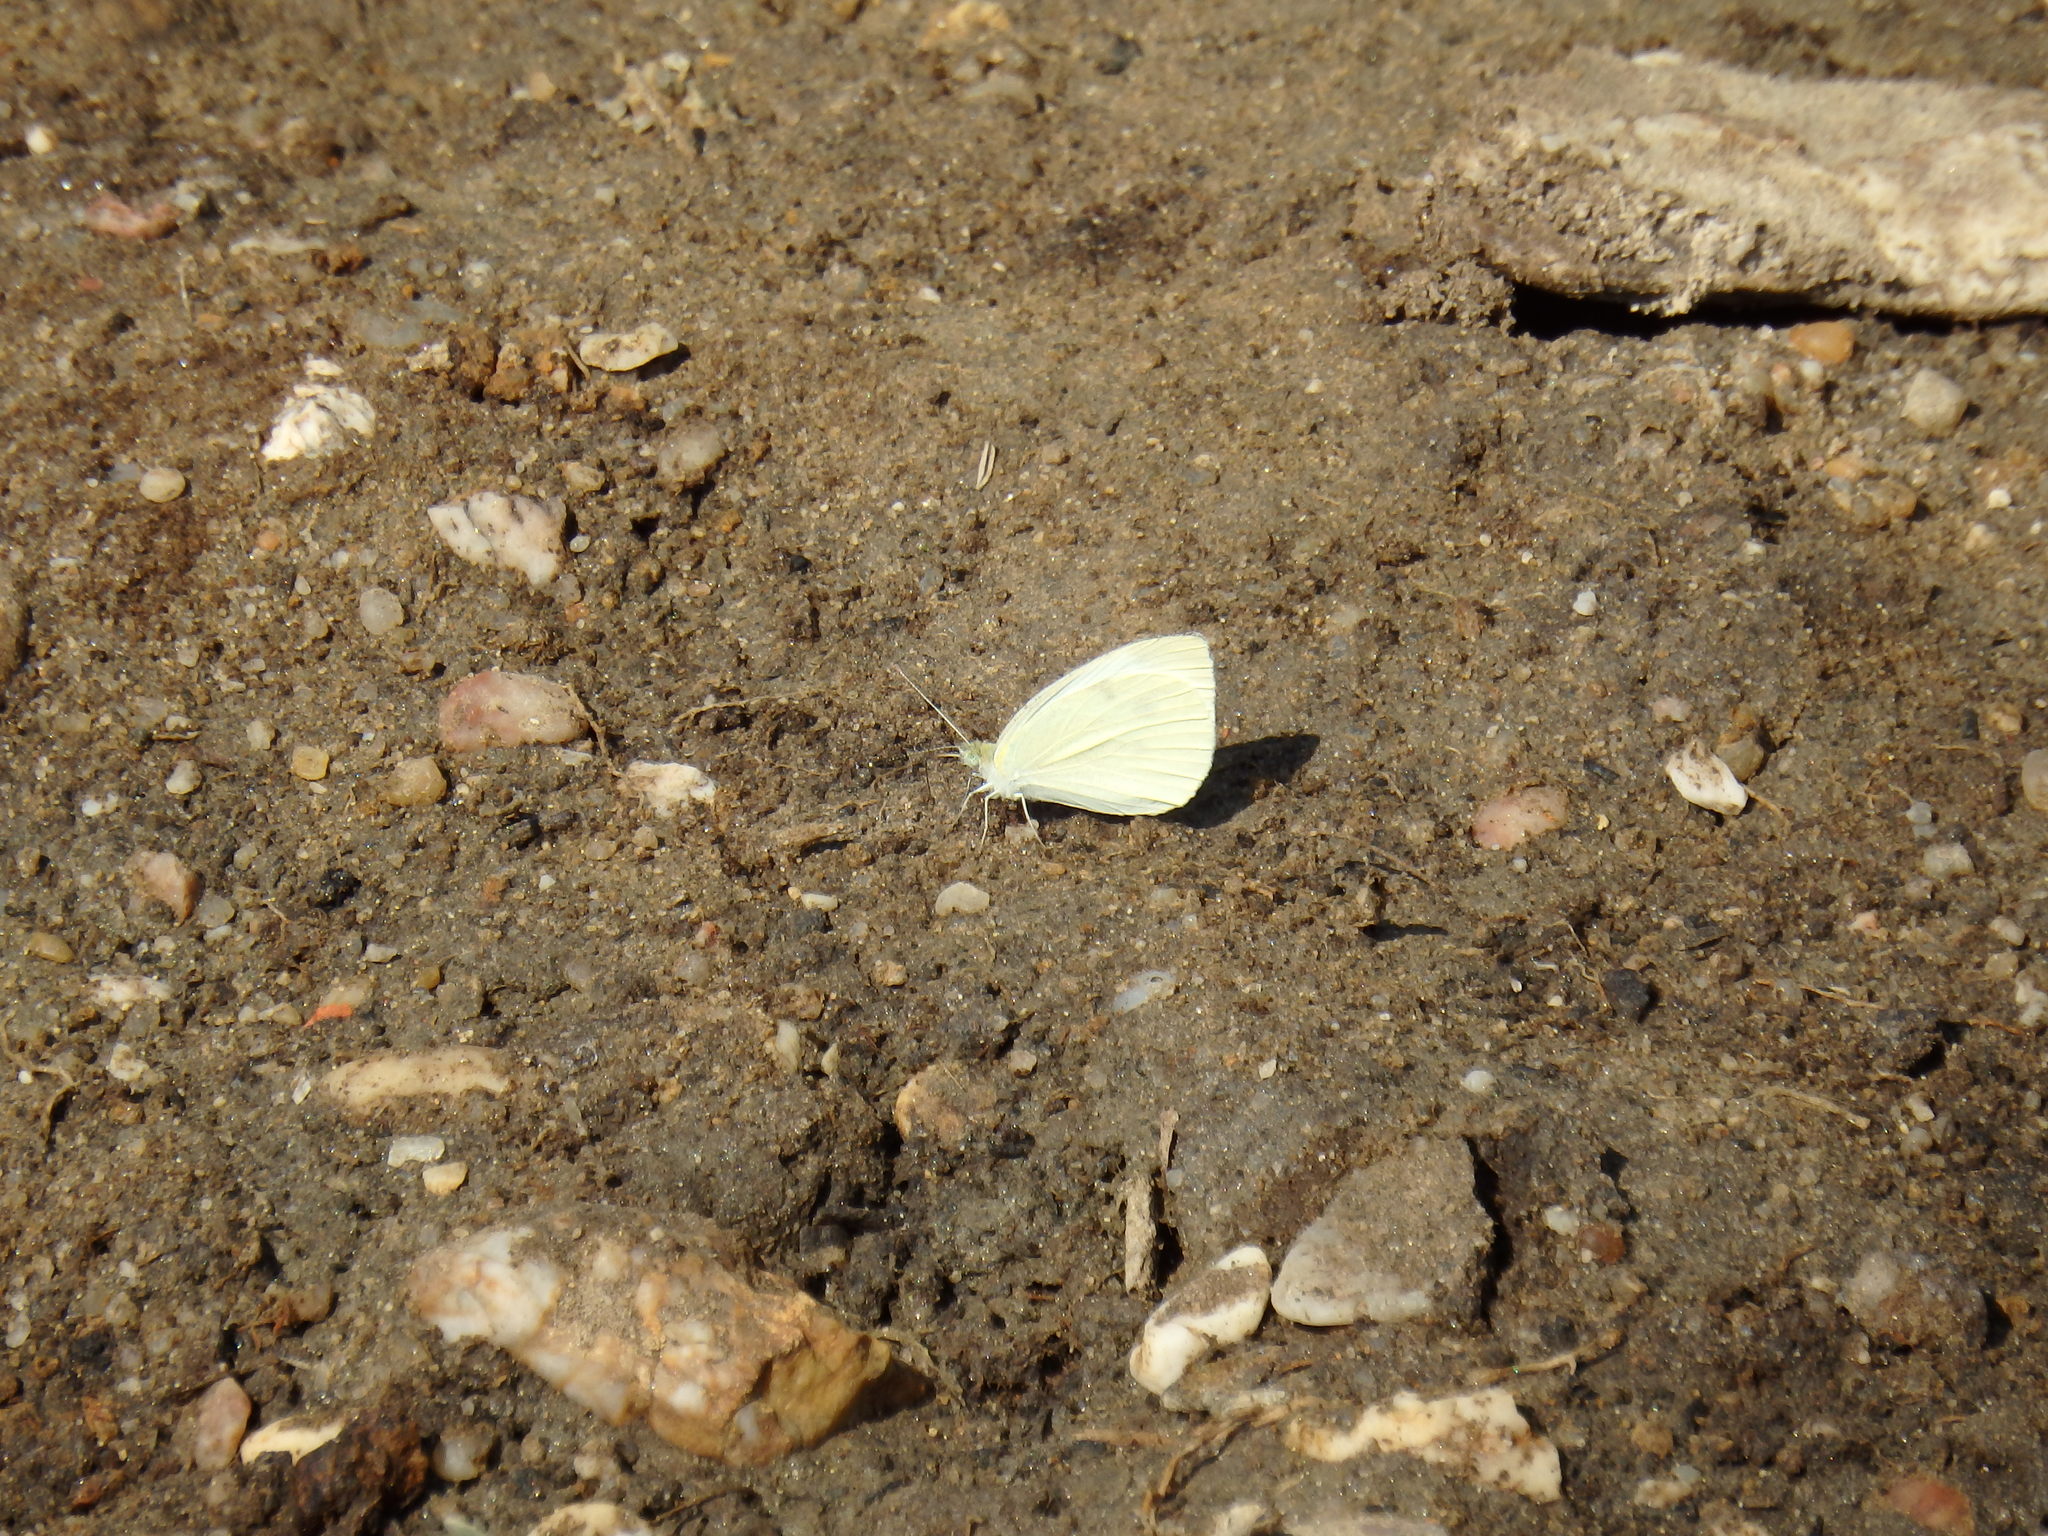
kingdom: Animalia
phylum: Arthropoda
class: Insecta
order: Lepidoptera
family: Pieridae
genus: Pieris
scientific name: Pieris rapae
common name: Small white
